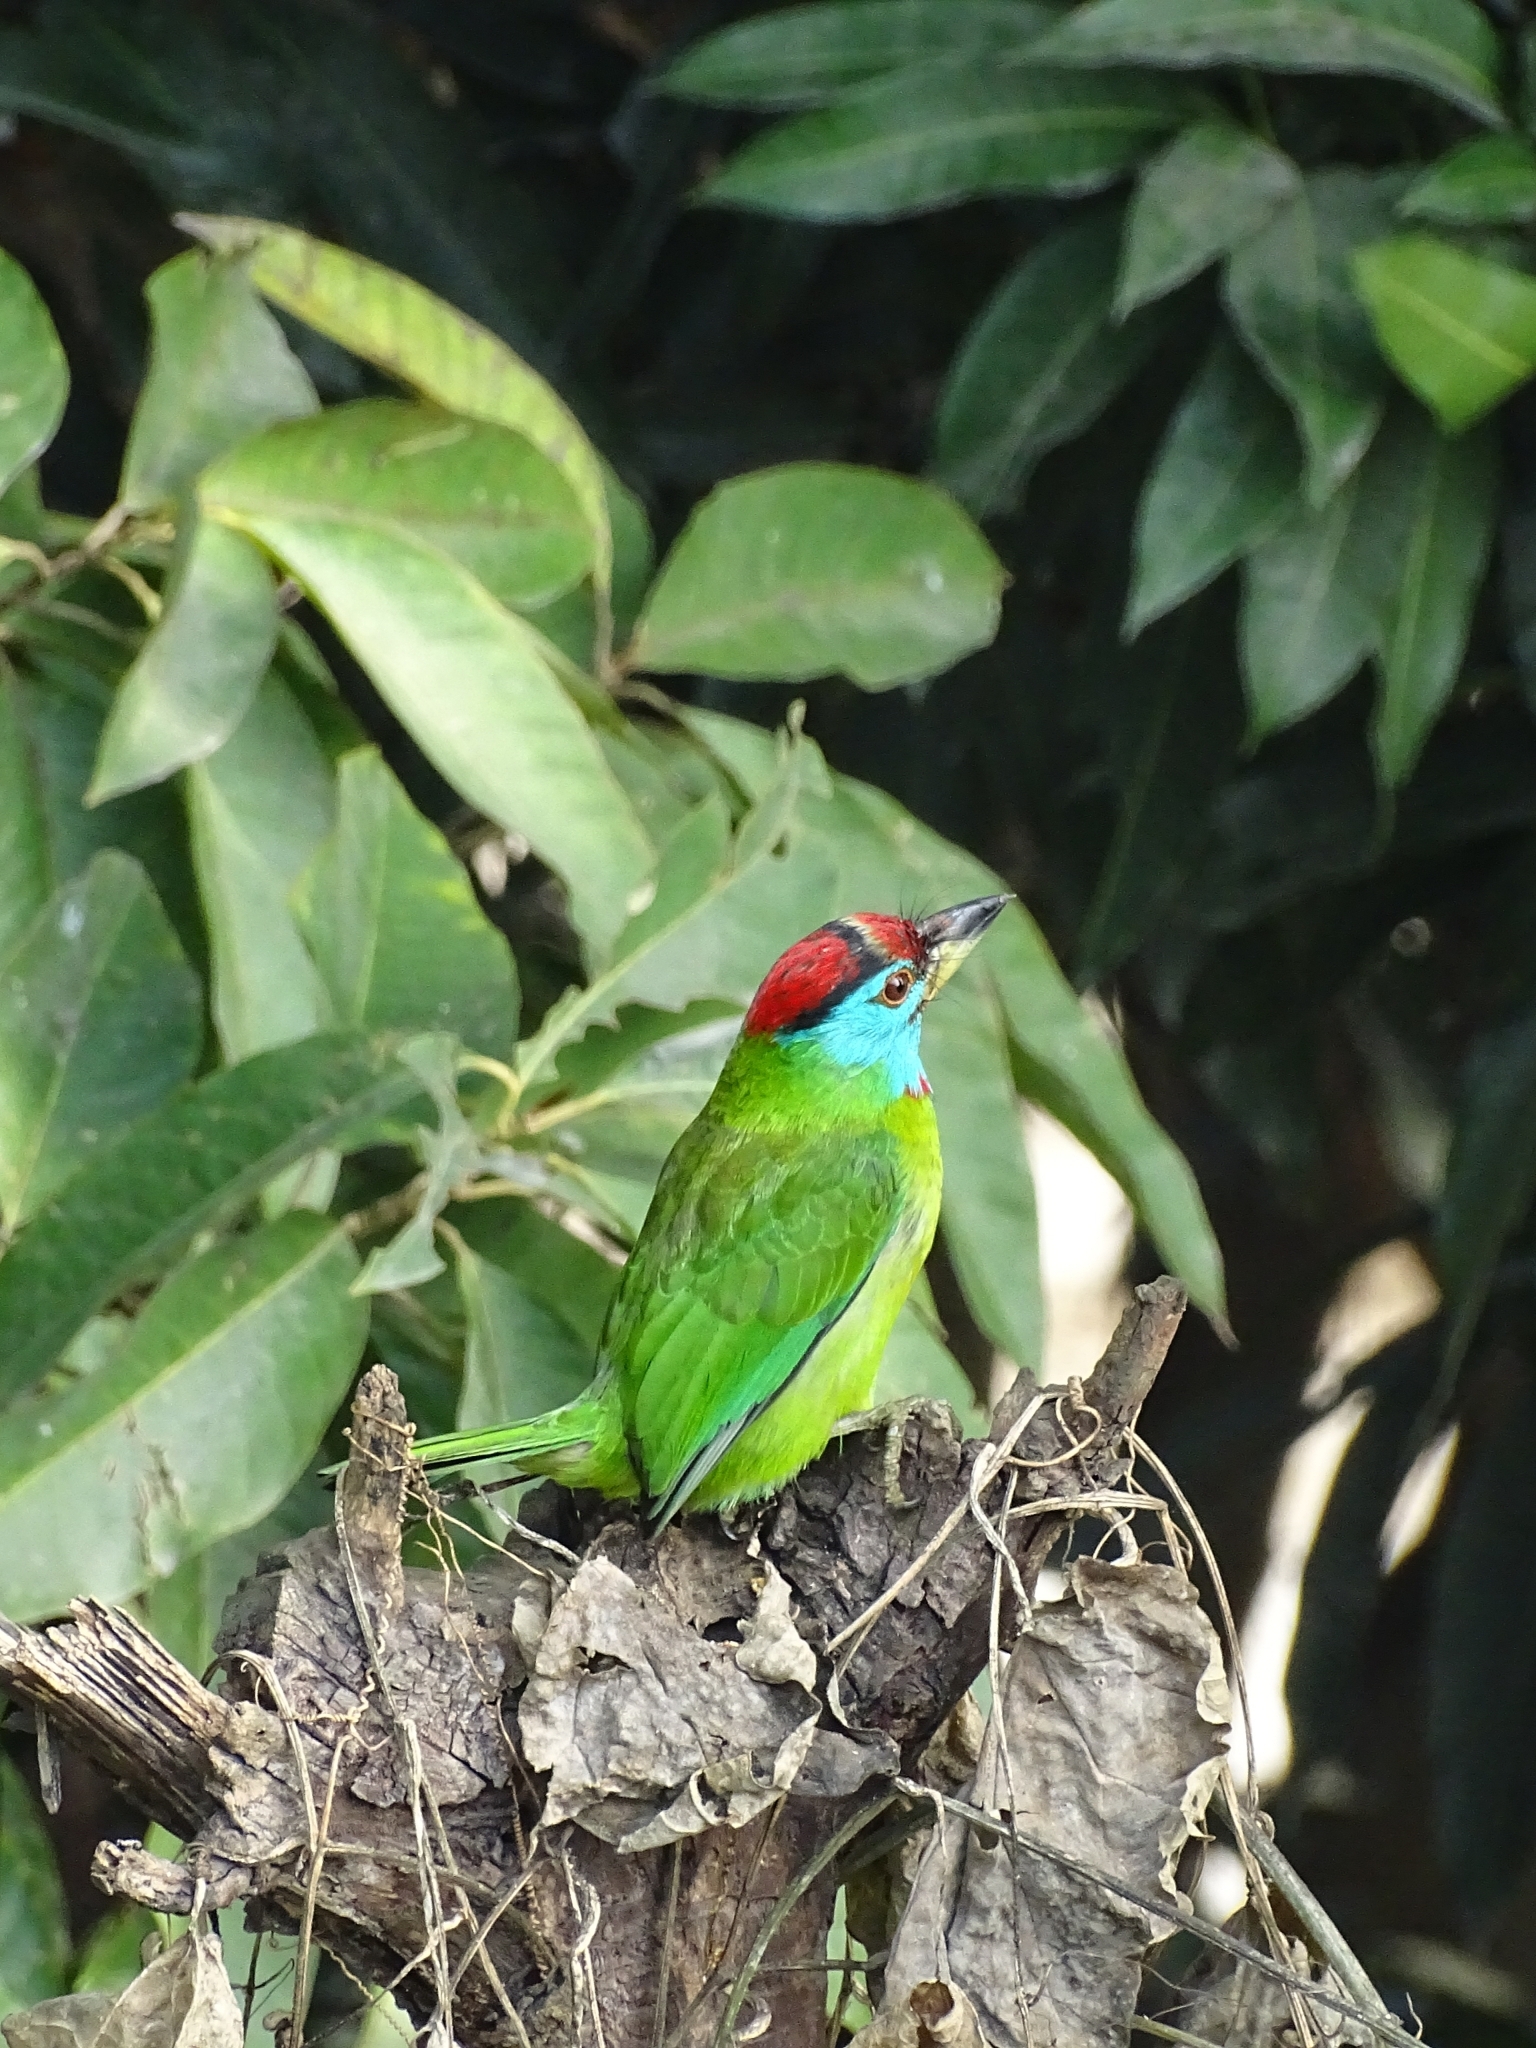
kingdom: Animalia
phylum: Chordata
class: Aves
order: Piciformes
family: Megalaimidae
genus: Psilopogon
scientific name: Psilopogon asiaticus
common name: Blue-throated barbet
